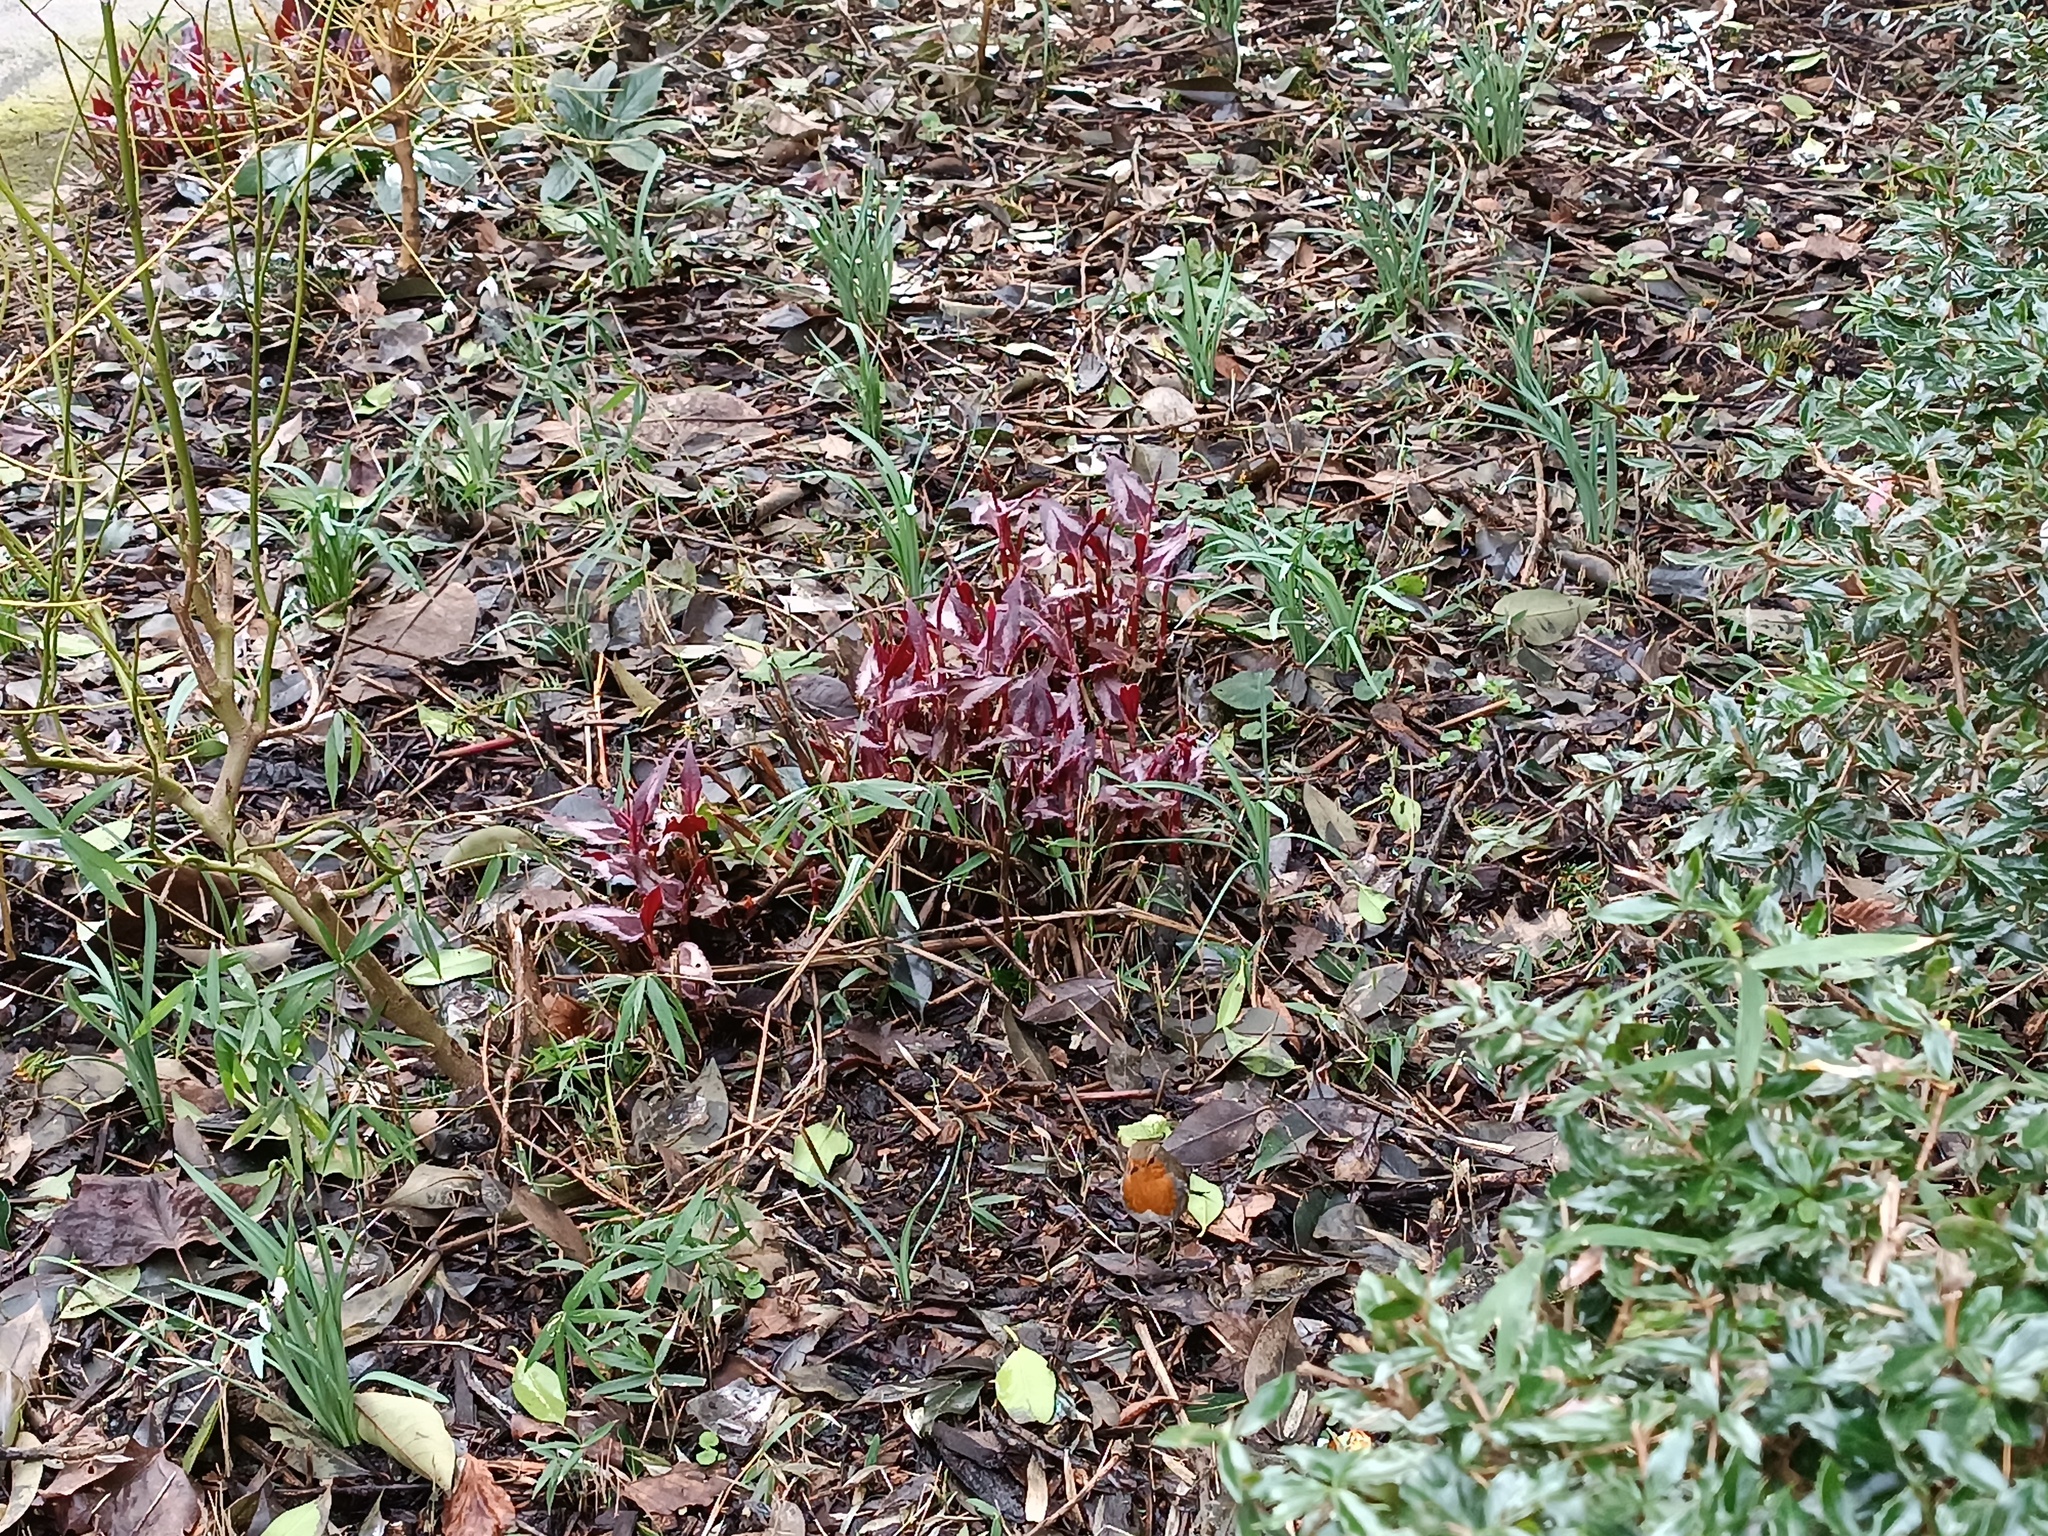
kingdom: Animalia
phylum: Chordata
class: Aves
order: Passeriformes
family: Muscicapidae
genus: Erithacus
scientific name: Erithacus rubecula
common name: European robin
